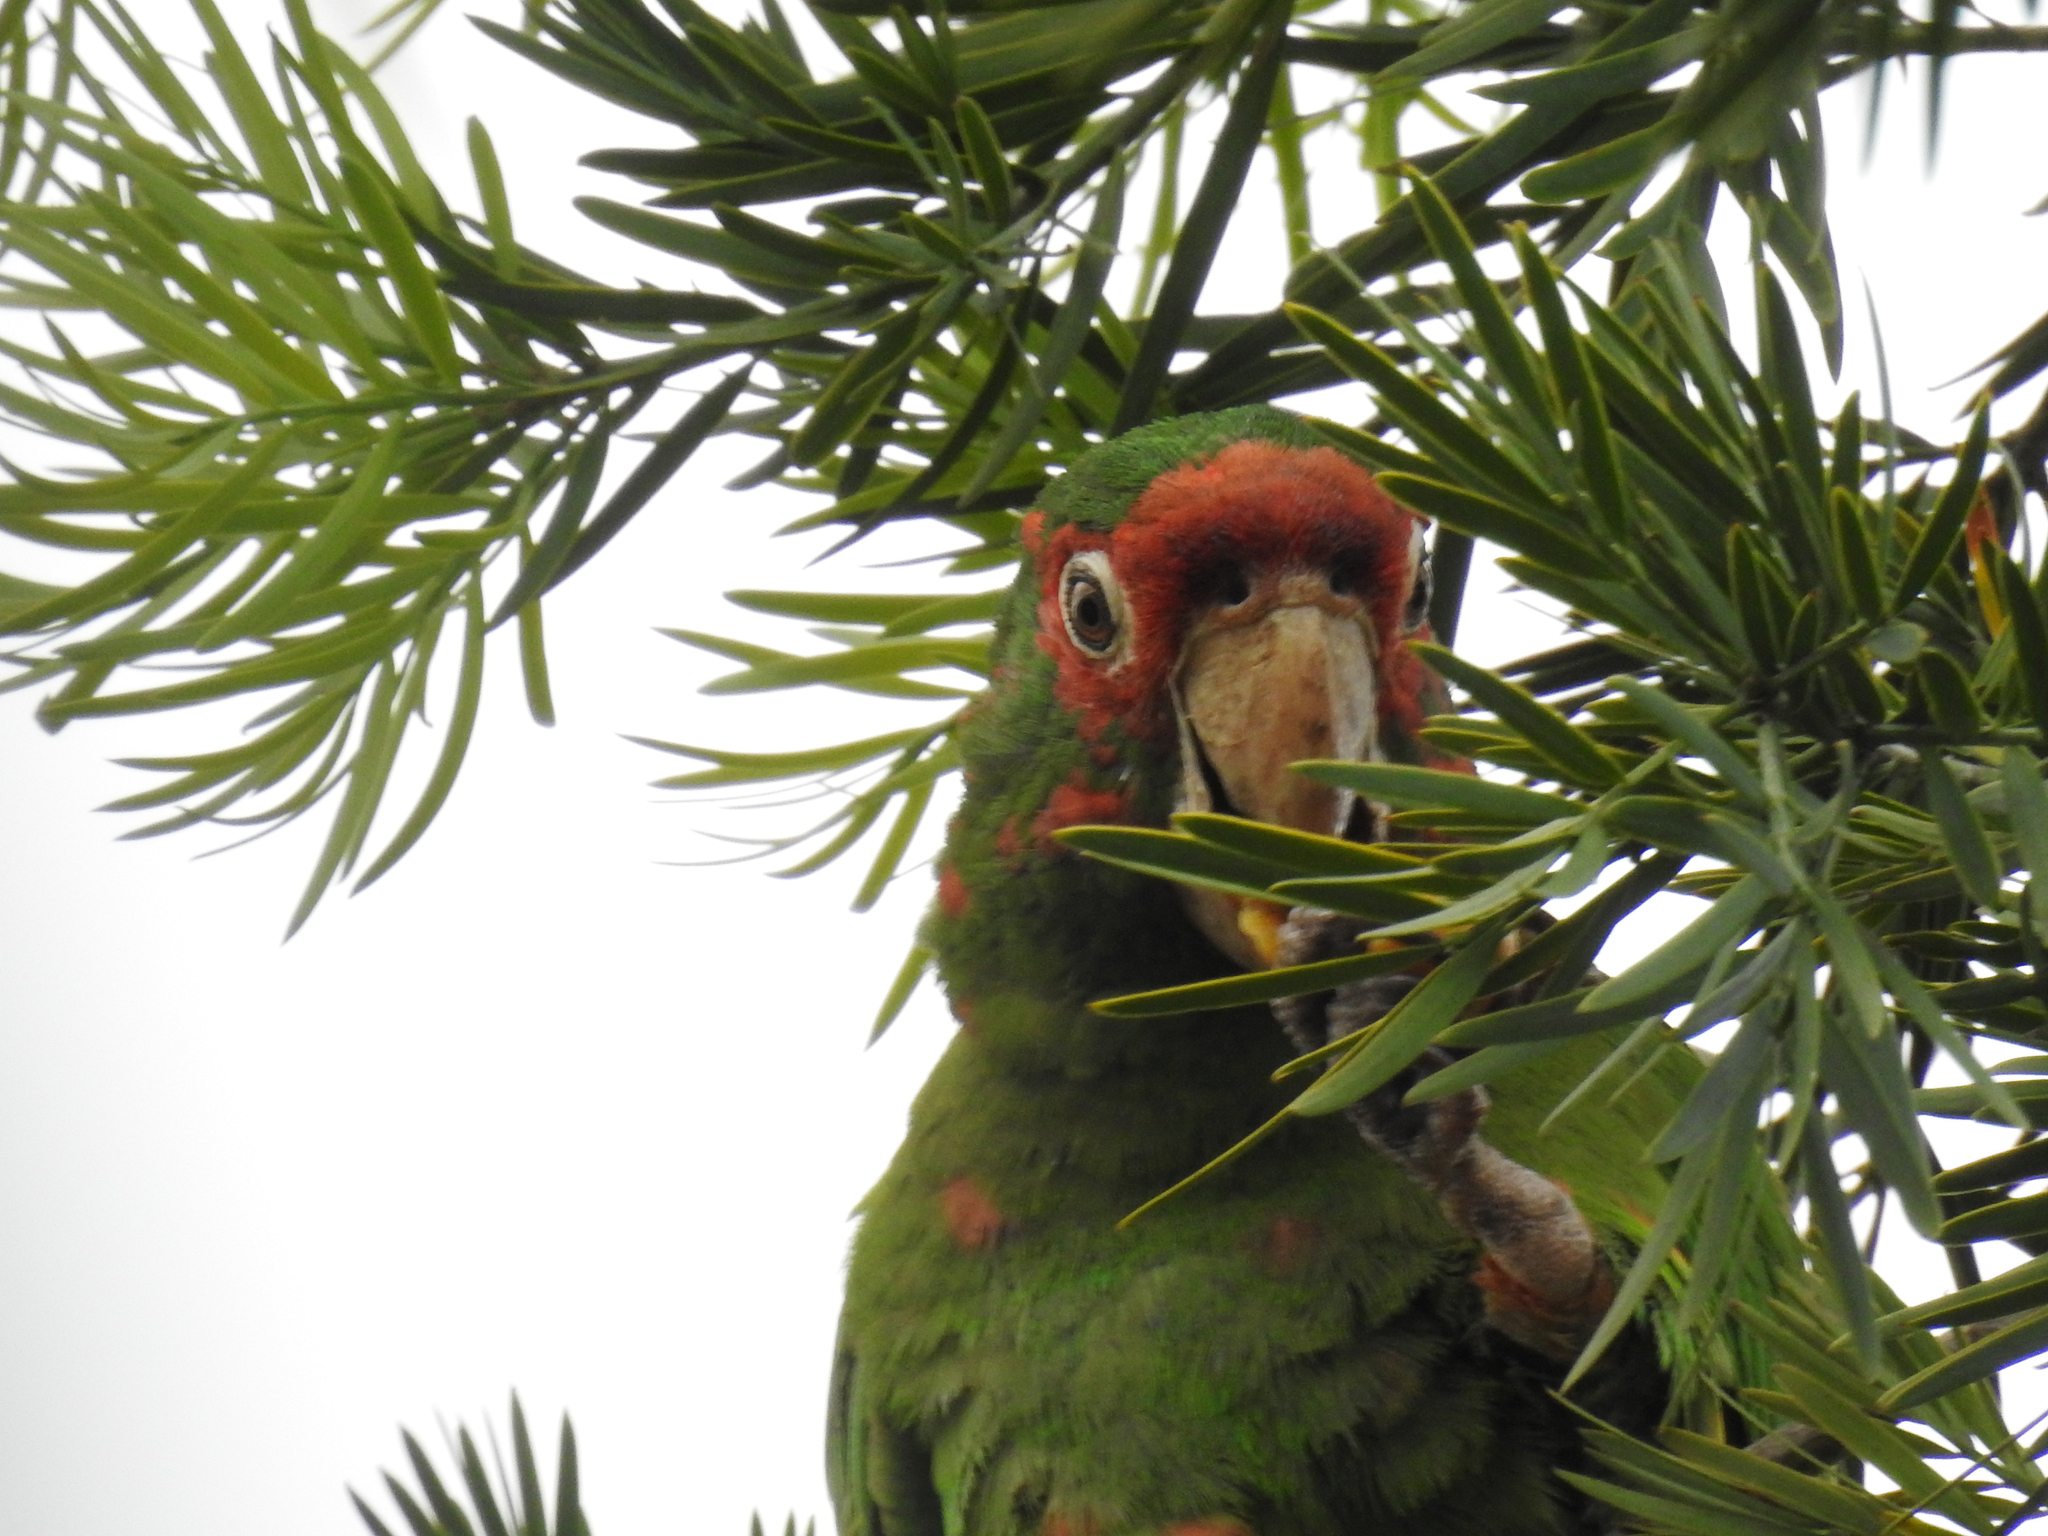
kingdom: Animalia
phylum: Chordata
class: Aves
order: Psittaciformes
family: Psittacidae
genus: Aratinga
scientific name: Aratinga mitrata
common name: Mitred parakeet
